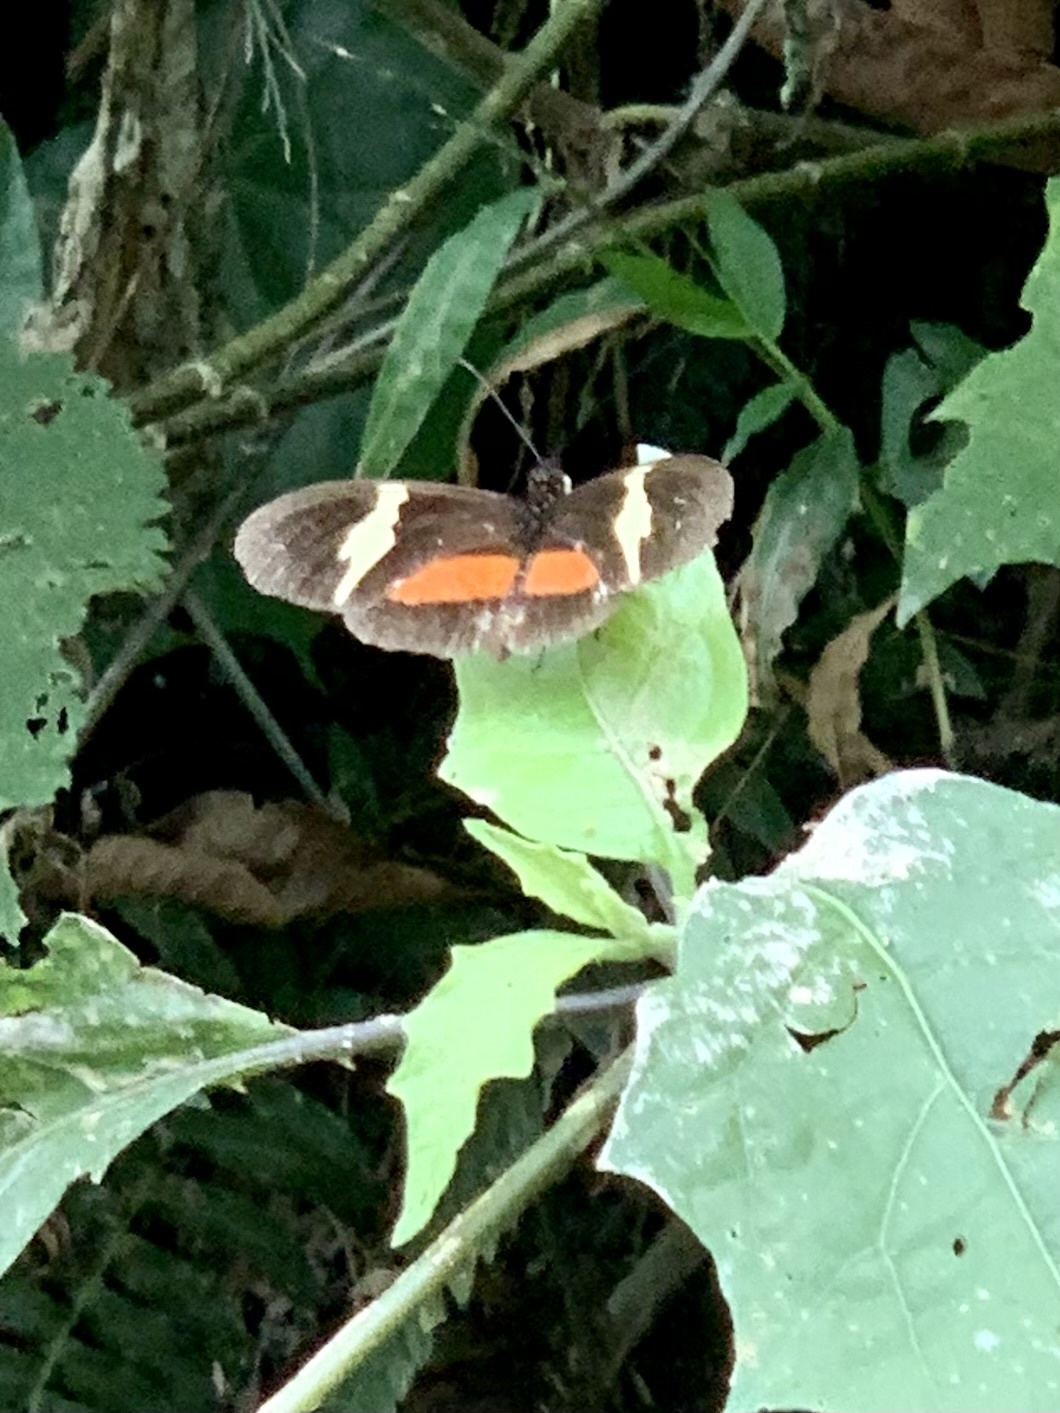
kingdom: Animalia
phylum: Arthropoda
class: Insecta
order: Lepidoptera
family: Nymphalidae
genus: Heliconius
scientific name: Heliconius clysonymus
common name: Clysonymus longwing
